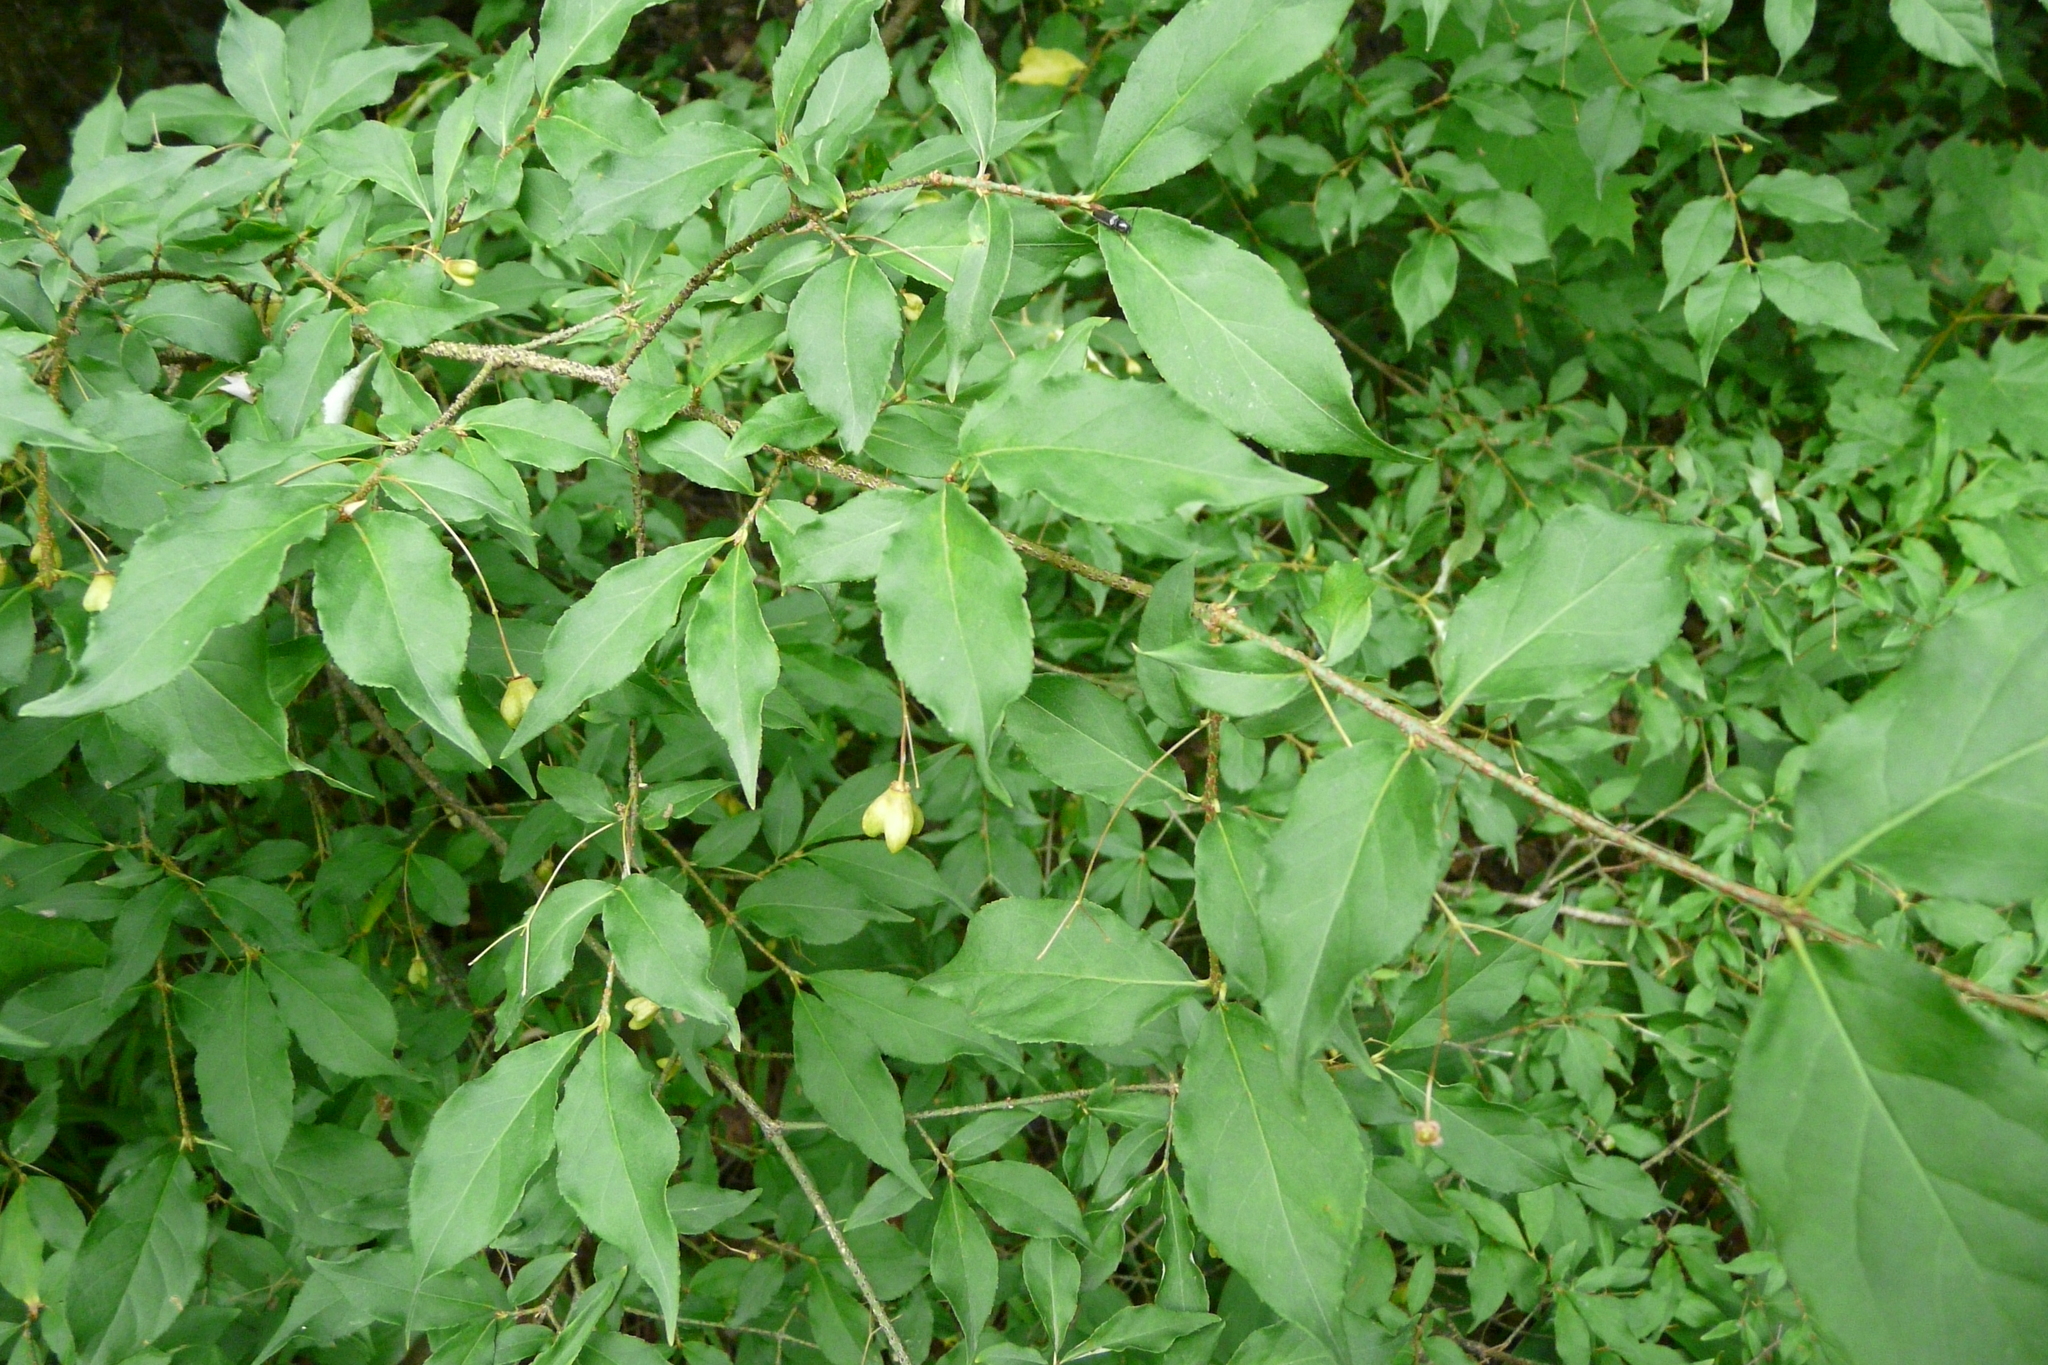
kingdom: Plantae
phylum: Tracheophyta
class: Magnoliopsida
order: Celastrales
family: Celastraceae
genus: Euonymus
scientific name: Euonymus verrucosus
